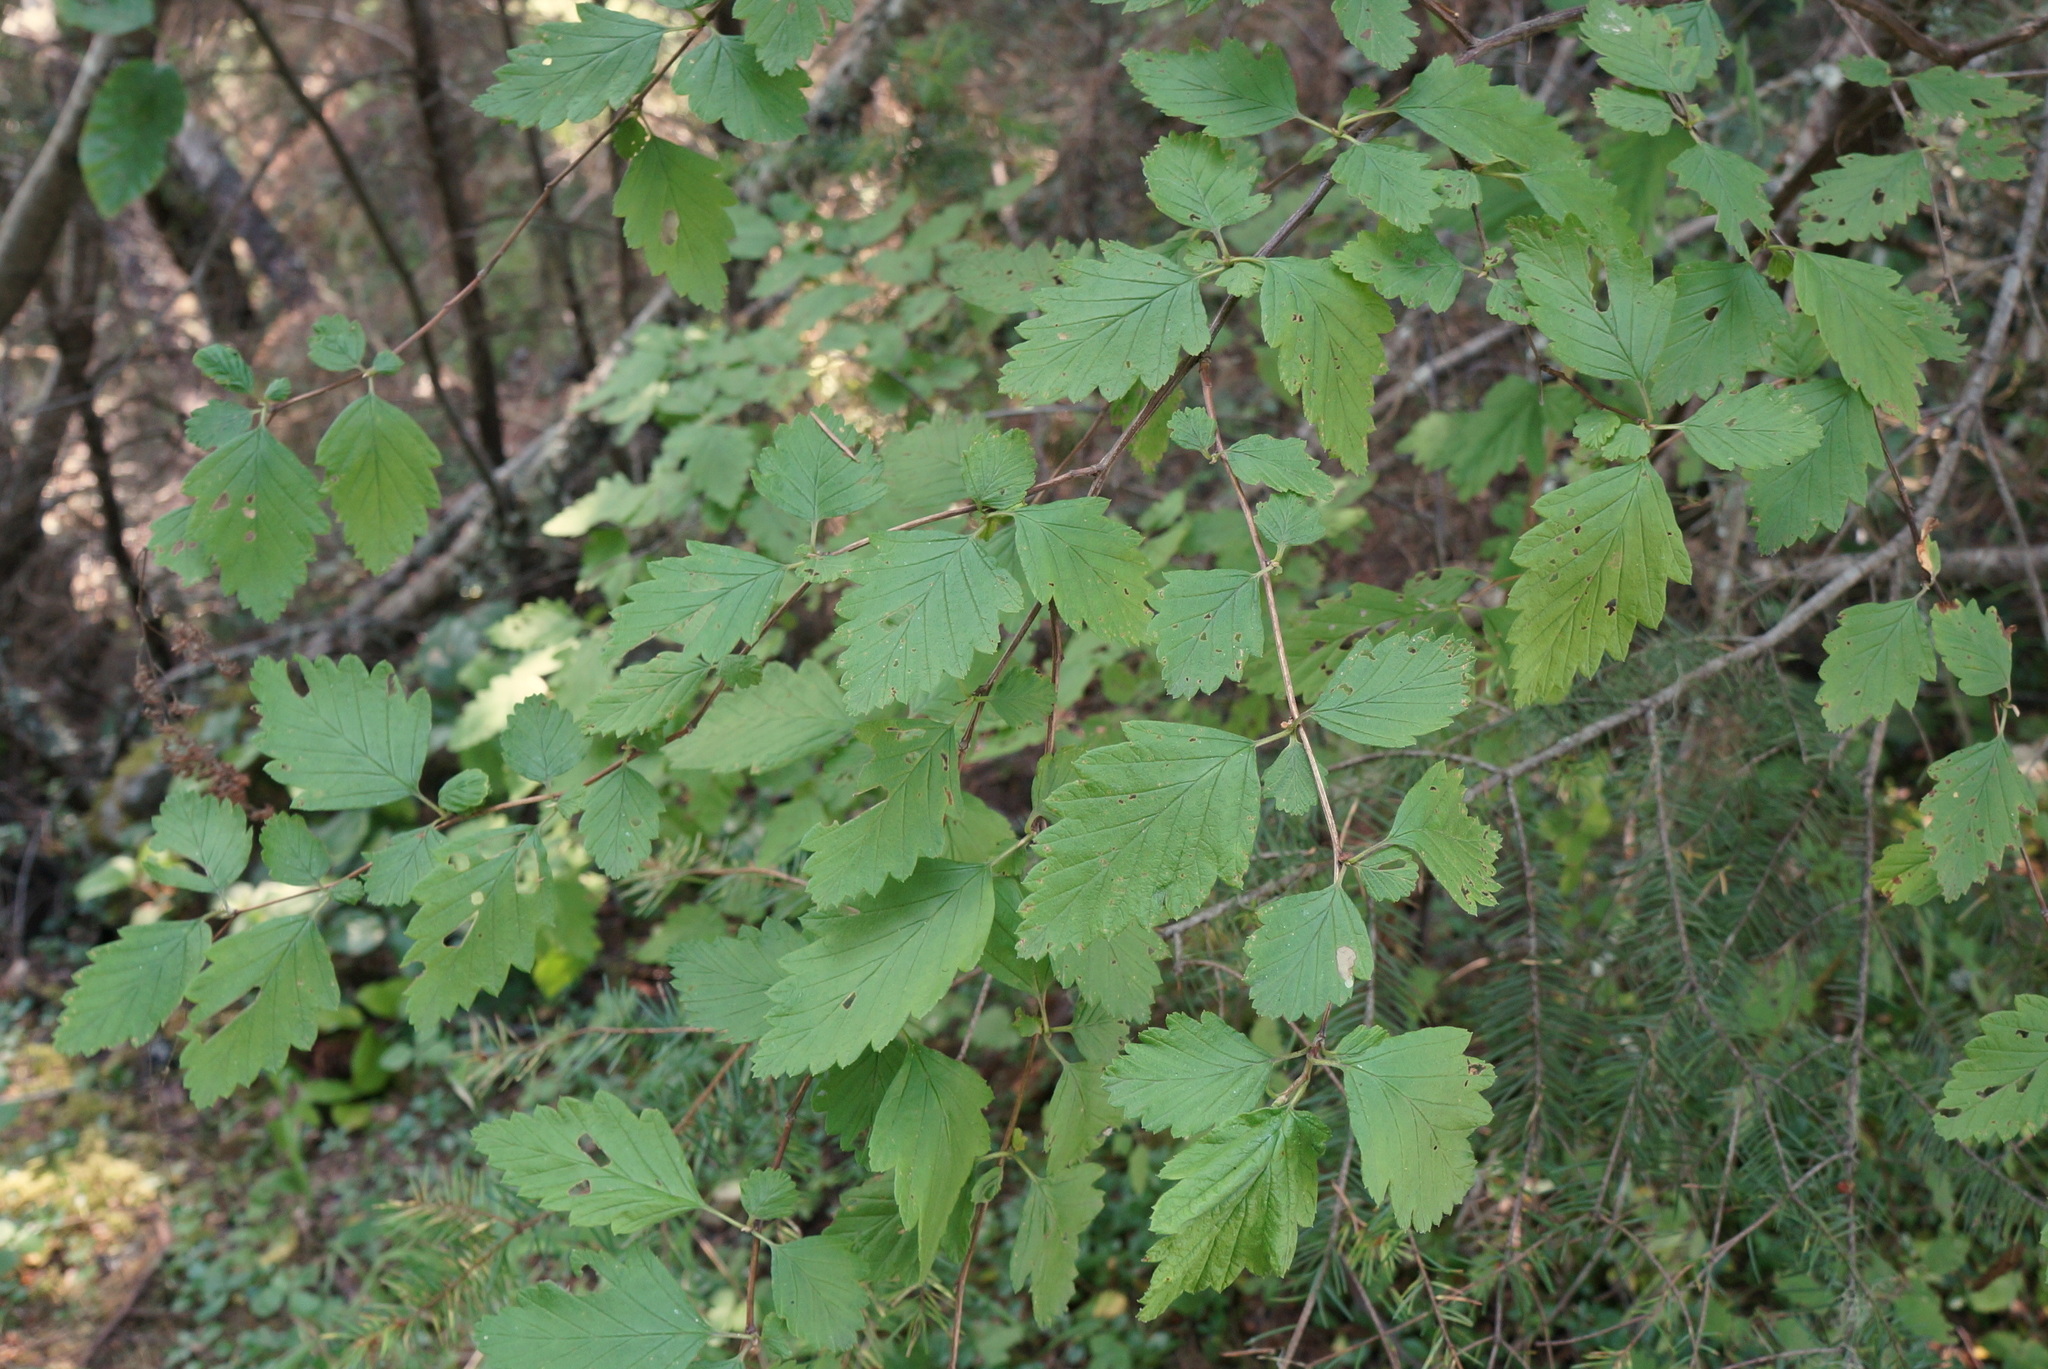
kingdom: Plantae
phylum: Tracheophyta
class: Magnoliopsida
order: Rosales
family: Rosaceae
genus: Holodiscus
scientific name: Holodiscus discolor
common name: Oceanspray
